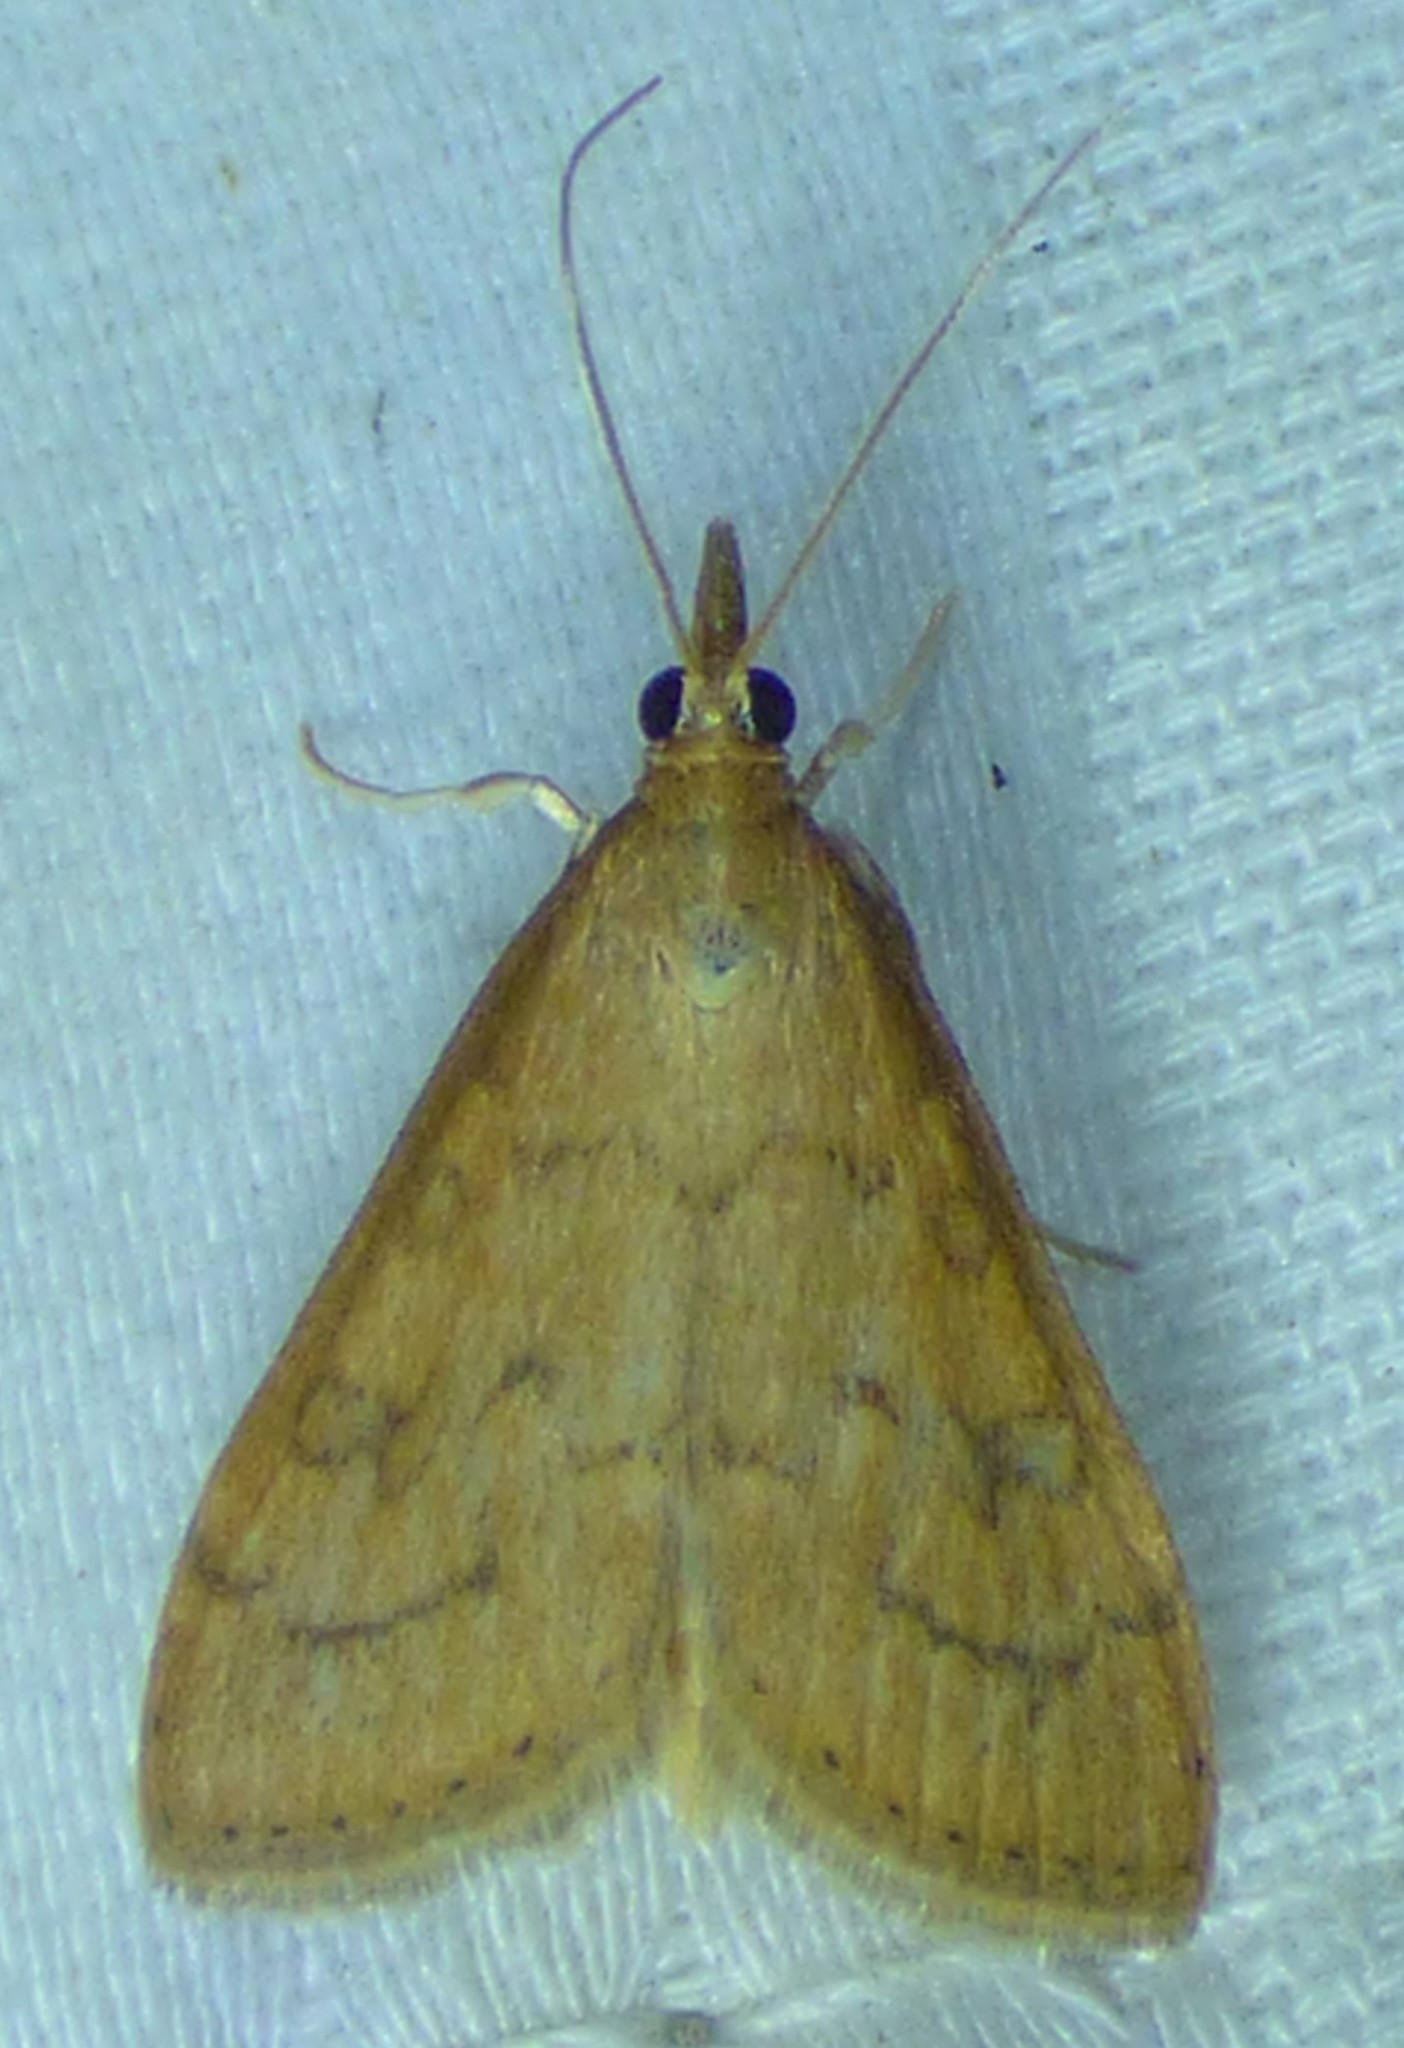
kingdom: Animalia
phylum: Arthropoda
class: Insecta
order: Lepidoptera
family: Crambidae
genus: Udea
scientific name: Udea rubigalis
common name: Celery leaftier moth
